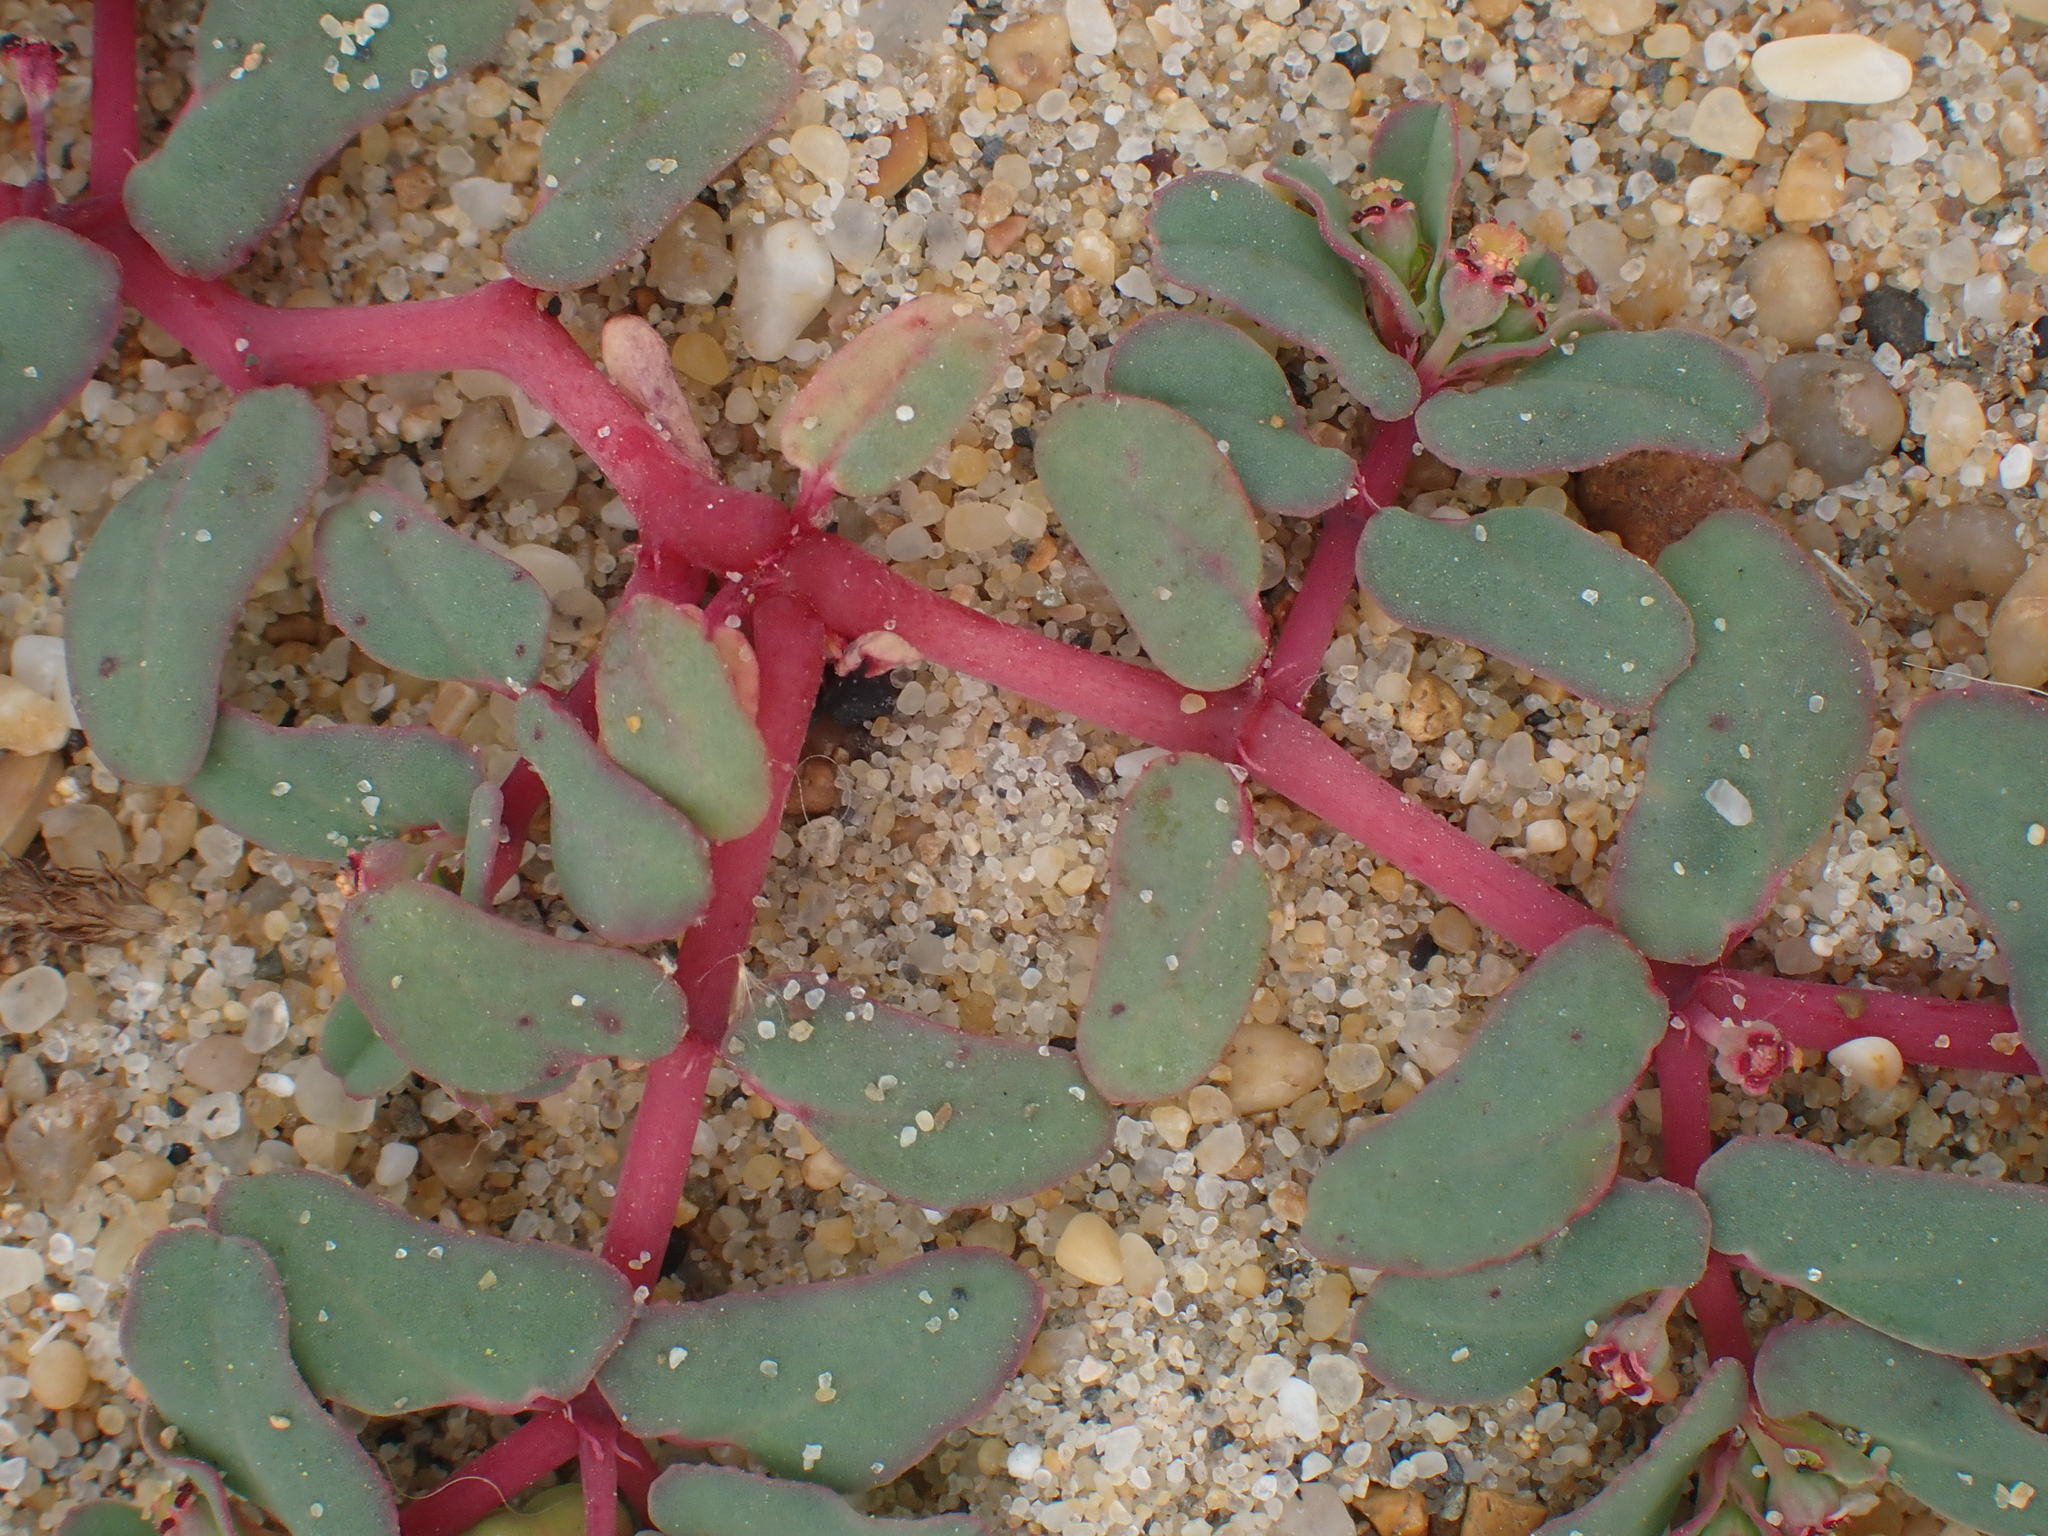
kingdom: Plantae
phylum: Tracheophyta
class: Magnoliopsida
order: Malpighiales
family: Euphorbiaceae
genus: Euphorbia
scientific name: Euphorbia peplis
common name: Purple spurge
